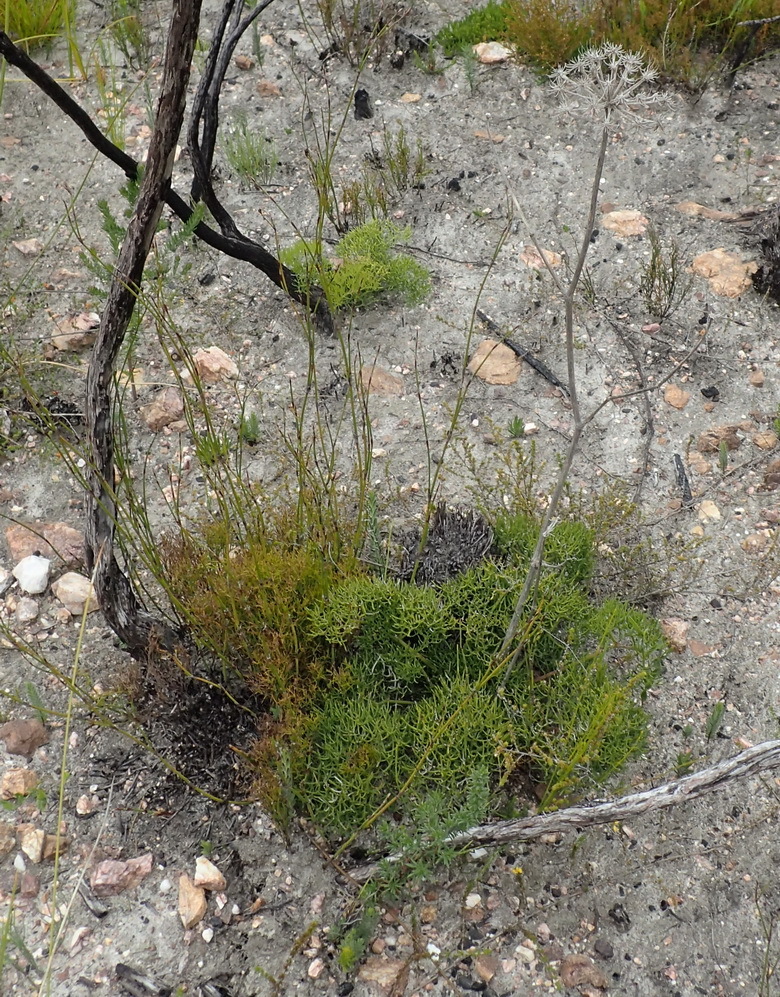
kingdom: Plantae
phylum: Tracheophyta
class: Magnoliopsida
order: Apiales
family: Apiaceae
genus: Nanobubon
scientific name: Nanobubon capillaceum
